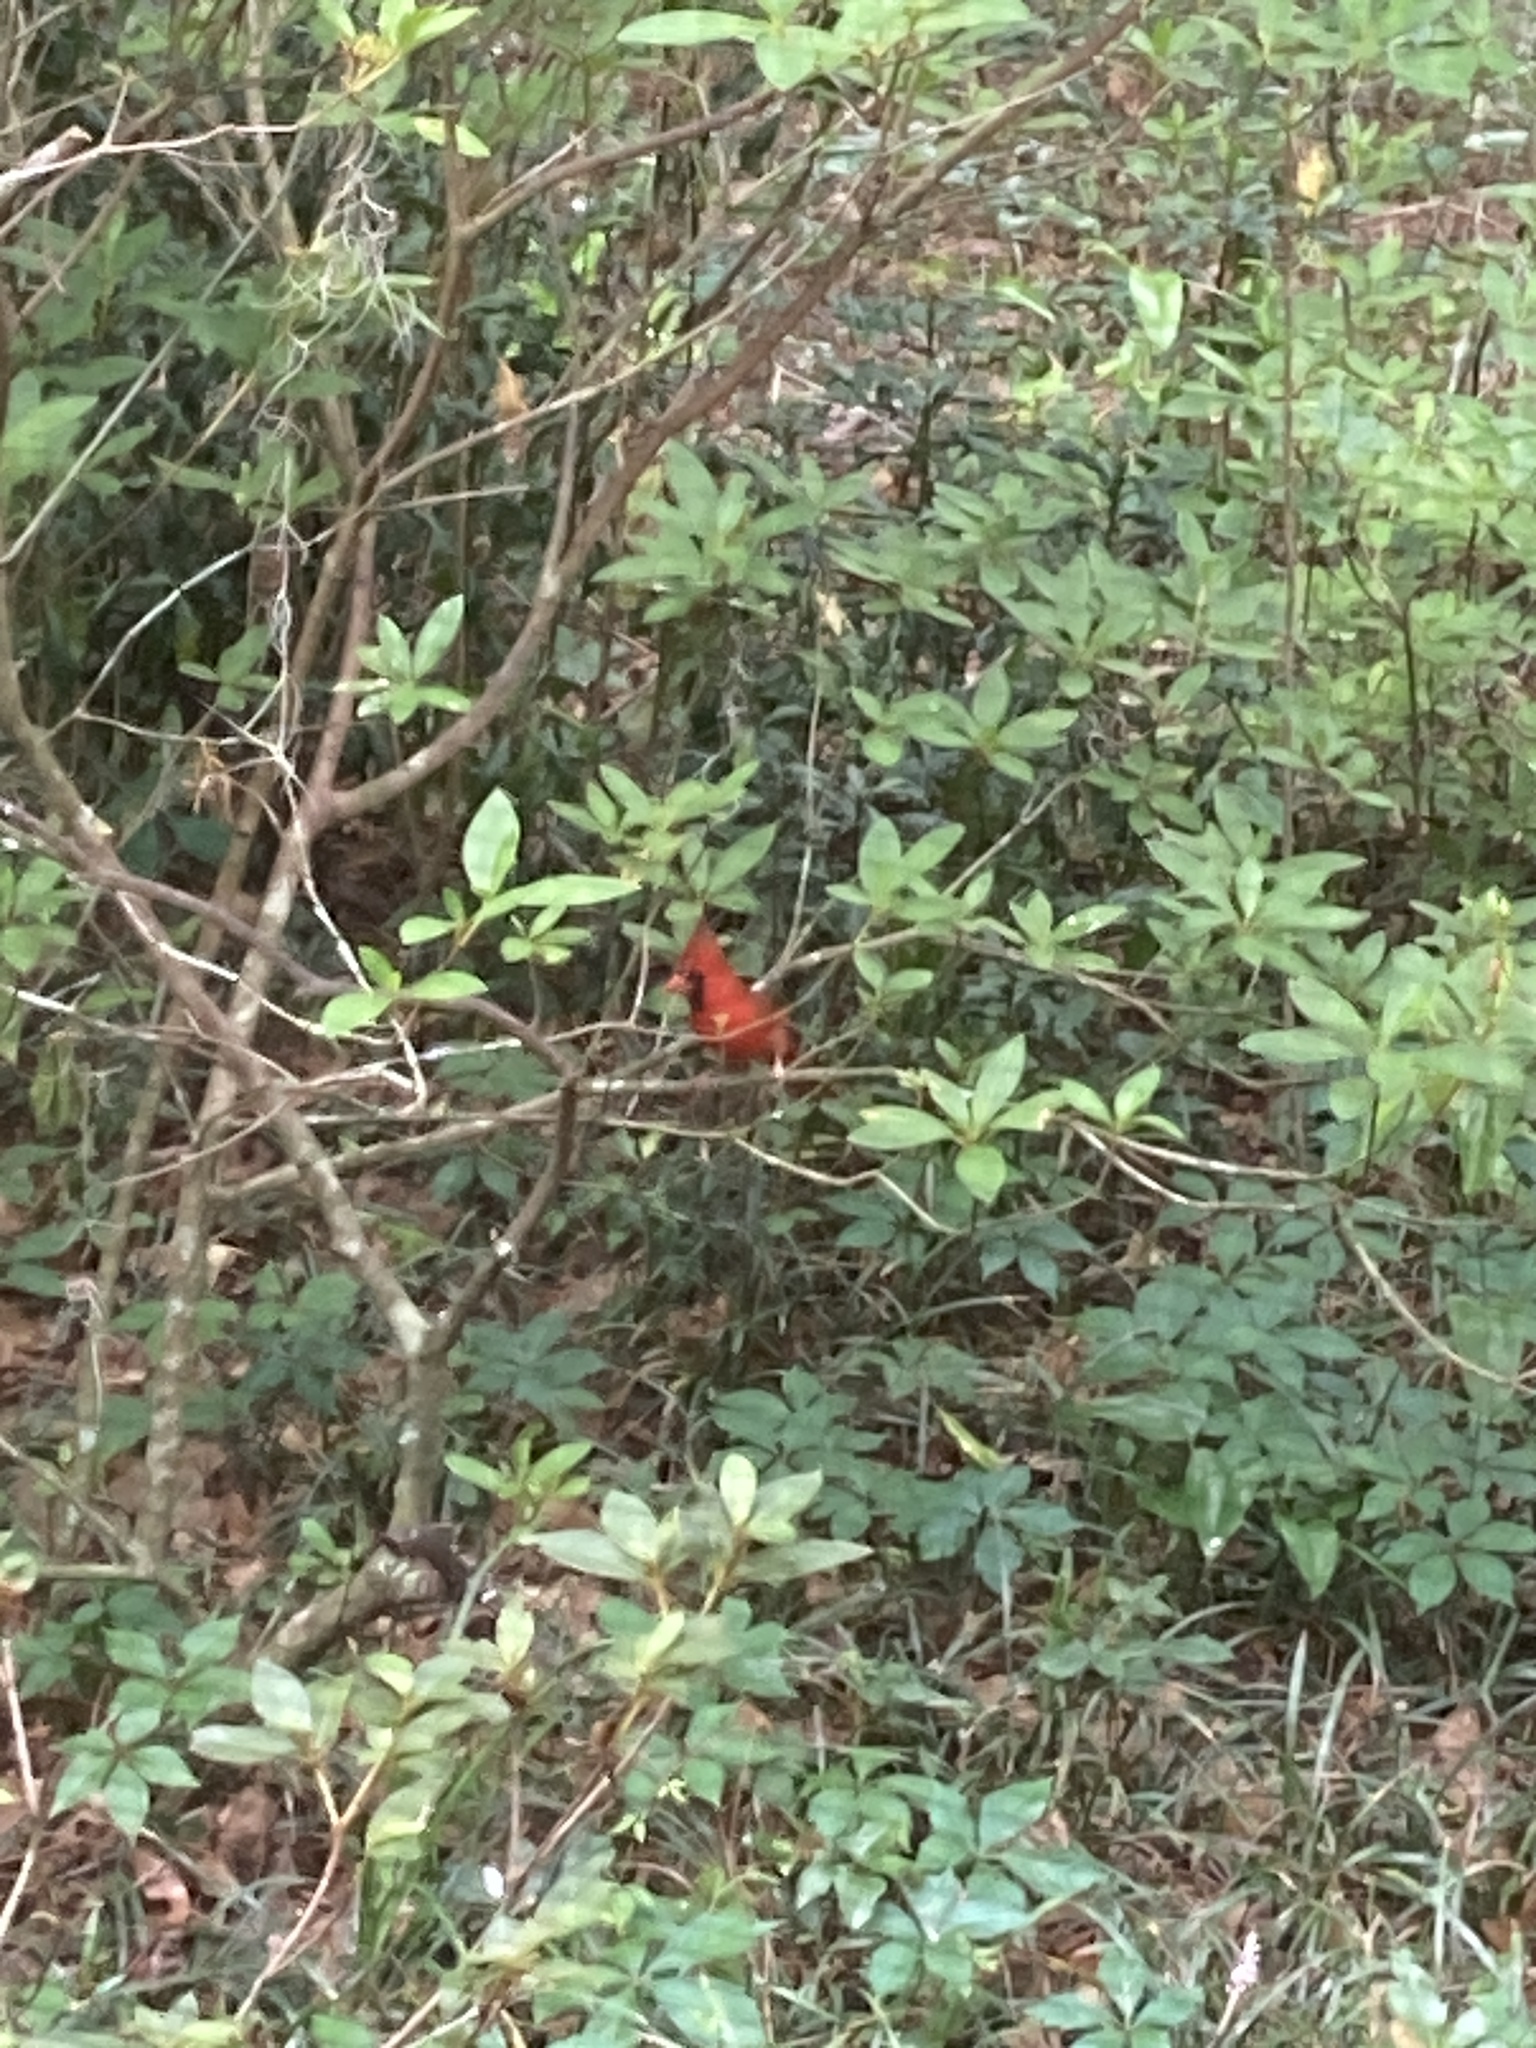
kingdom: Animalia
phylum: Chordata
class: Aves
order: Passeriformes
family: Cardinalidae
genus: Cardinalis
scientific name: Cardinalis cardinalis
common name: Northern cardinal
